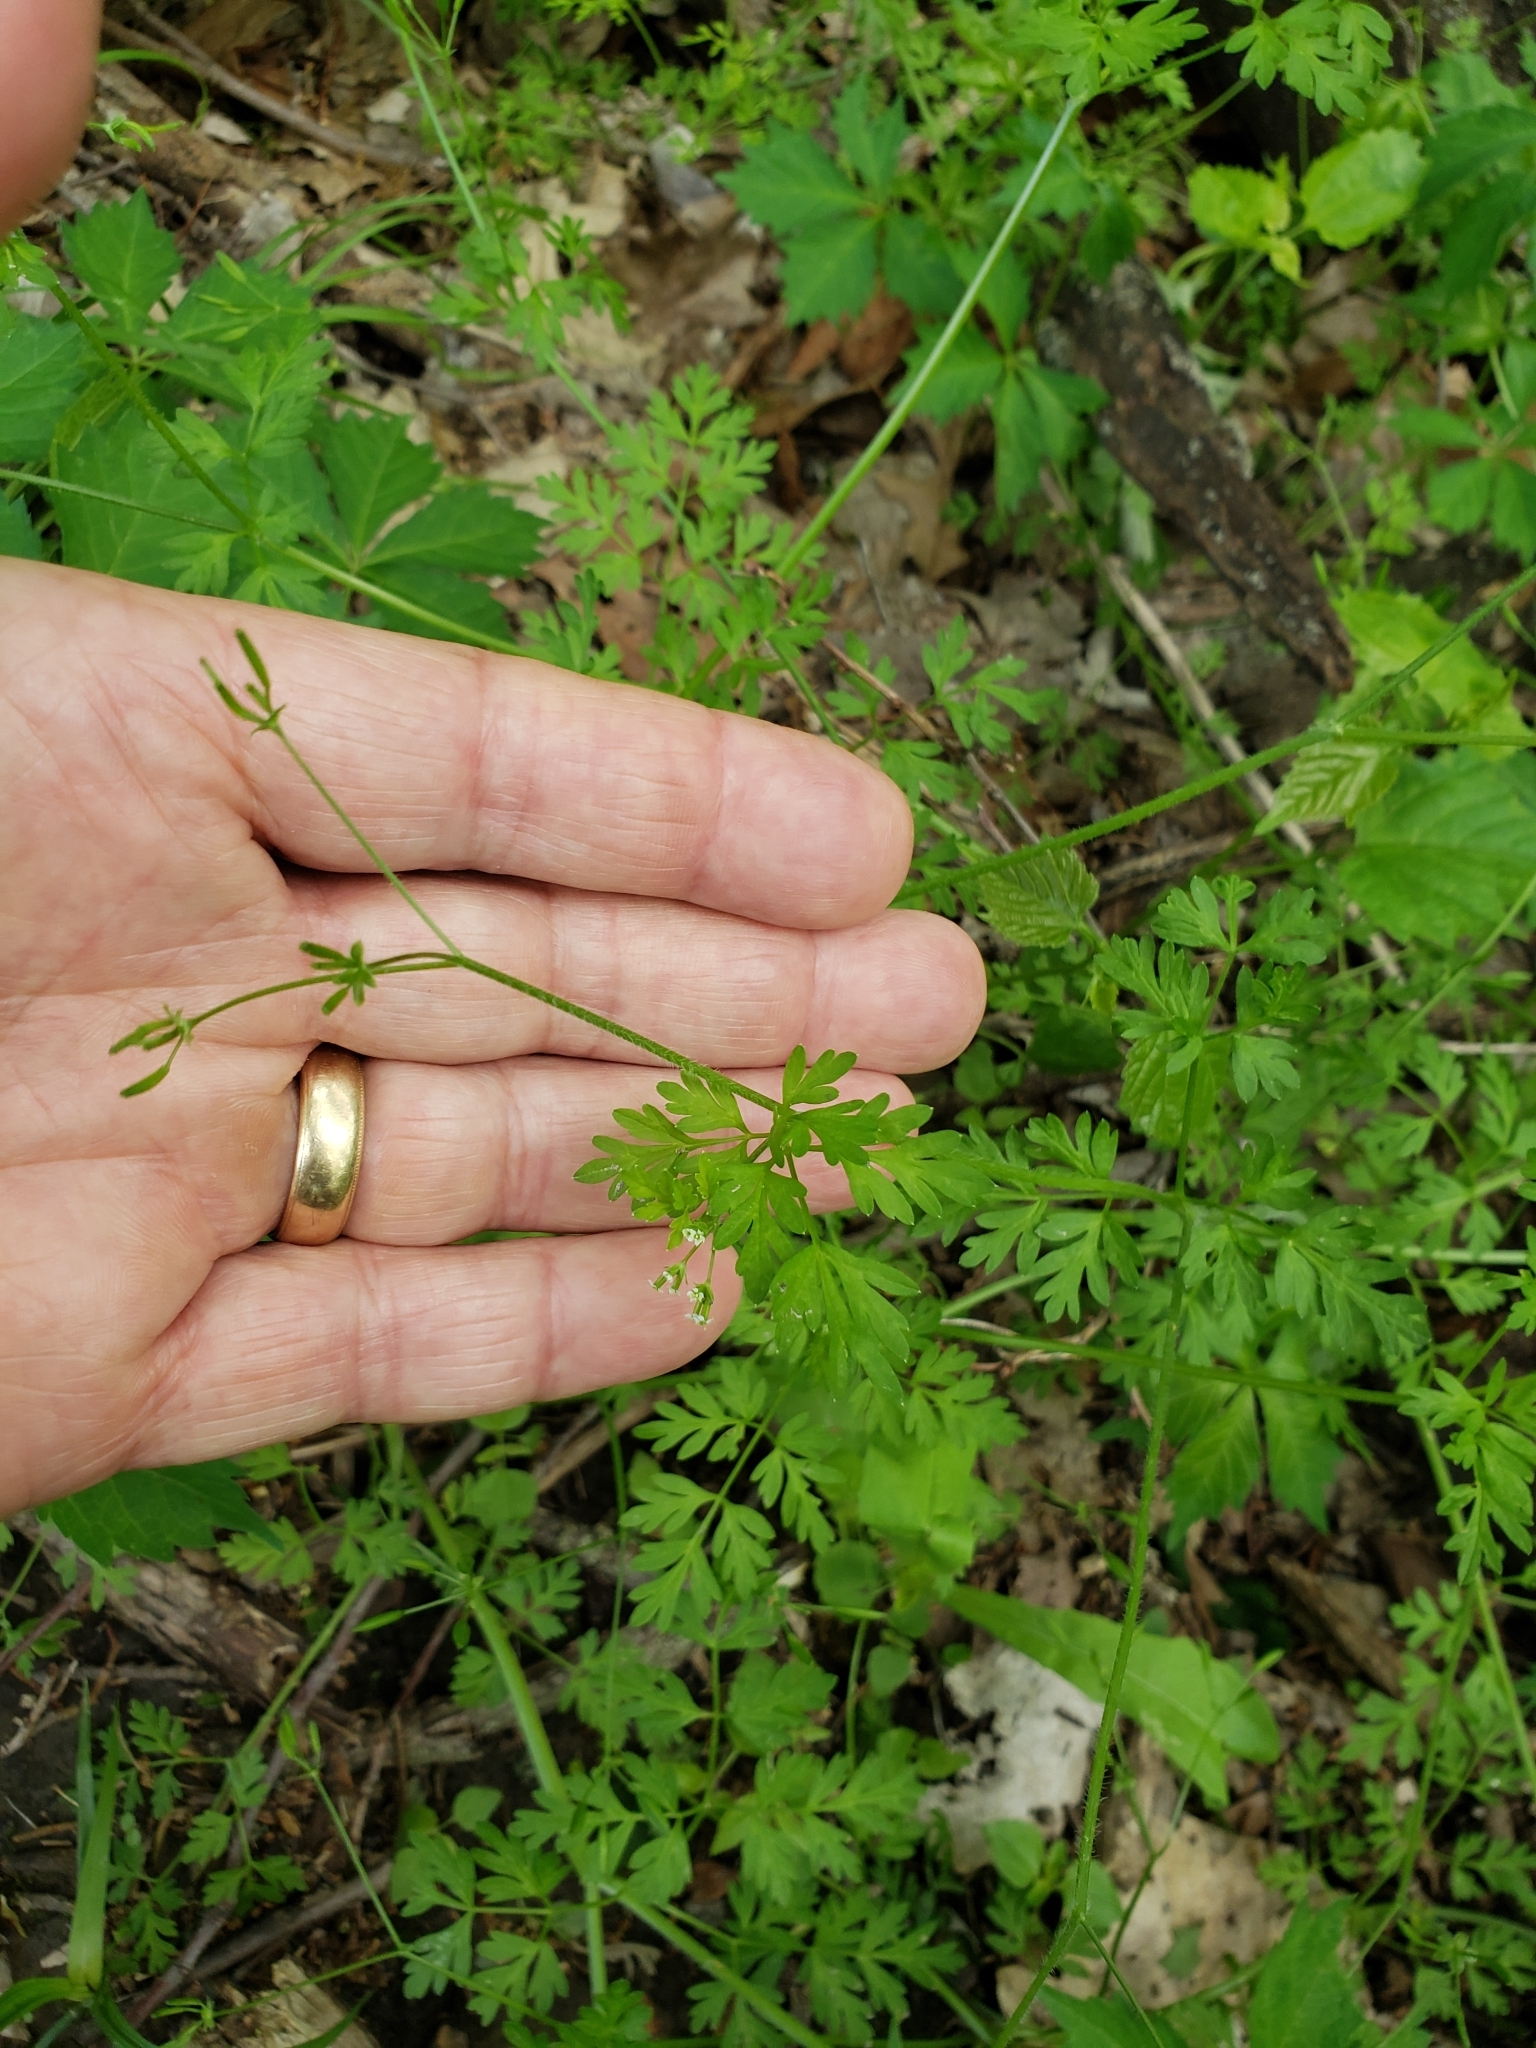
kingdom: Plantae
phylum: Tracheophyta
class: Magnoliopsida
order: Apiales
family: Apiaceae
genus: Chaerophyllum
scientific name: Chaerophyllum procumbens
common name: Spreading chervil
